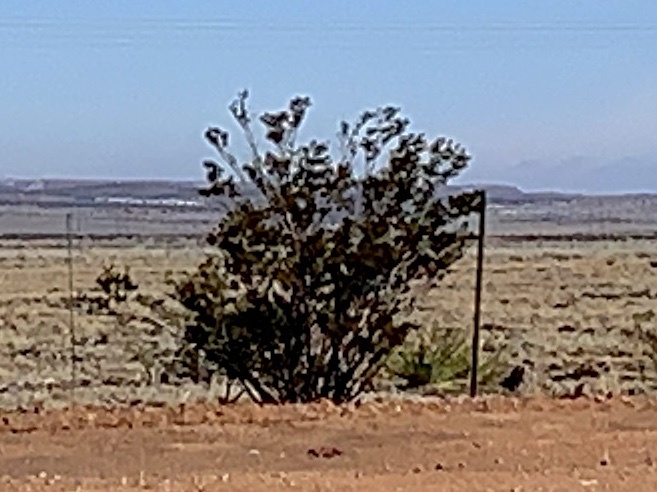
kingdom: Plantae
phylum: Tracheophyta
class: Magnoliopsida
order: Zygophyllales
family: Zygophyllaceae
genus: Larrea
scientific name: Larrea tridentata
